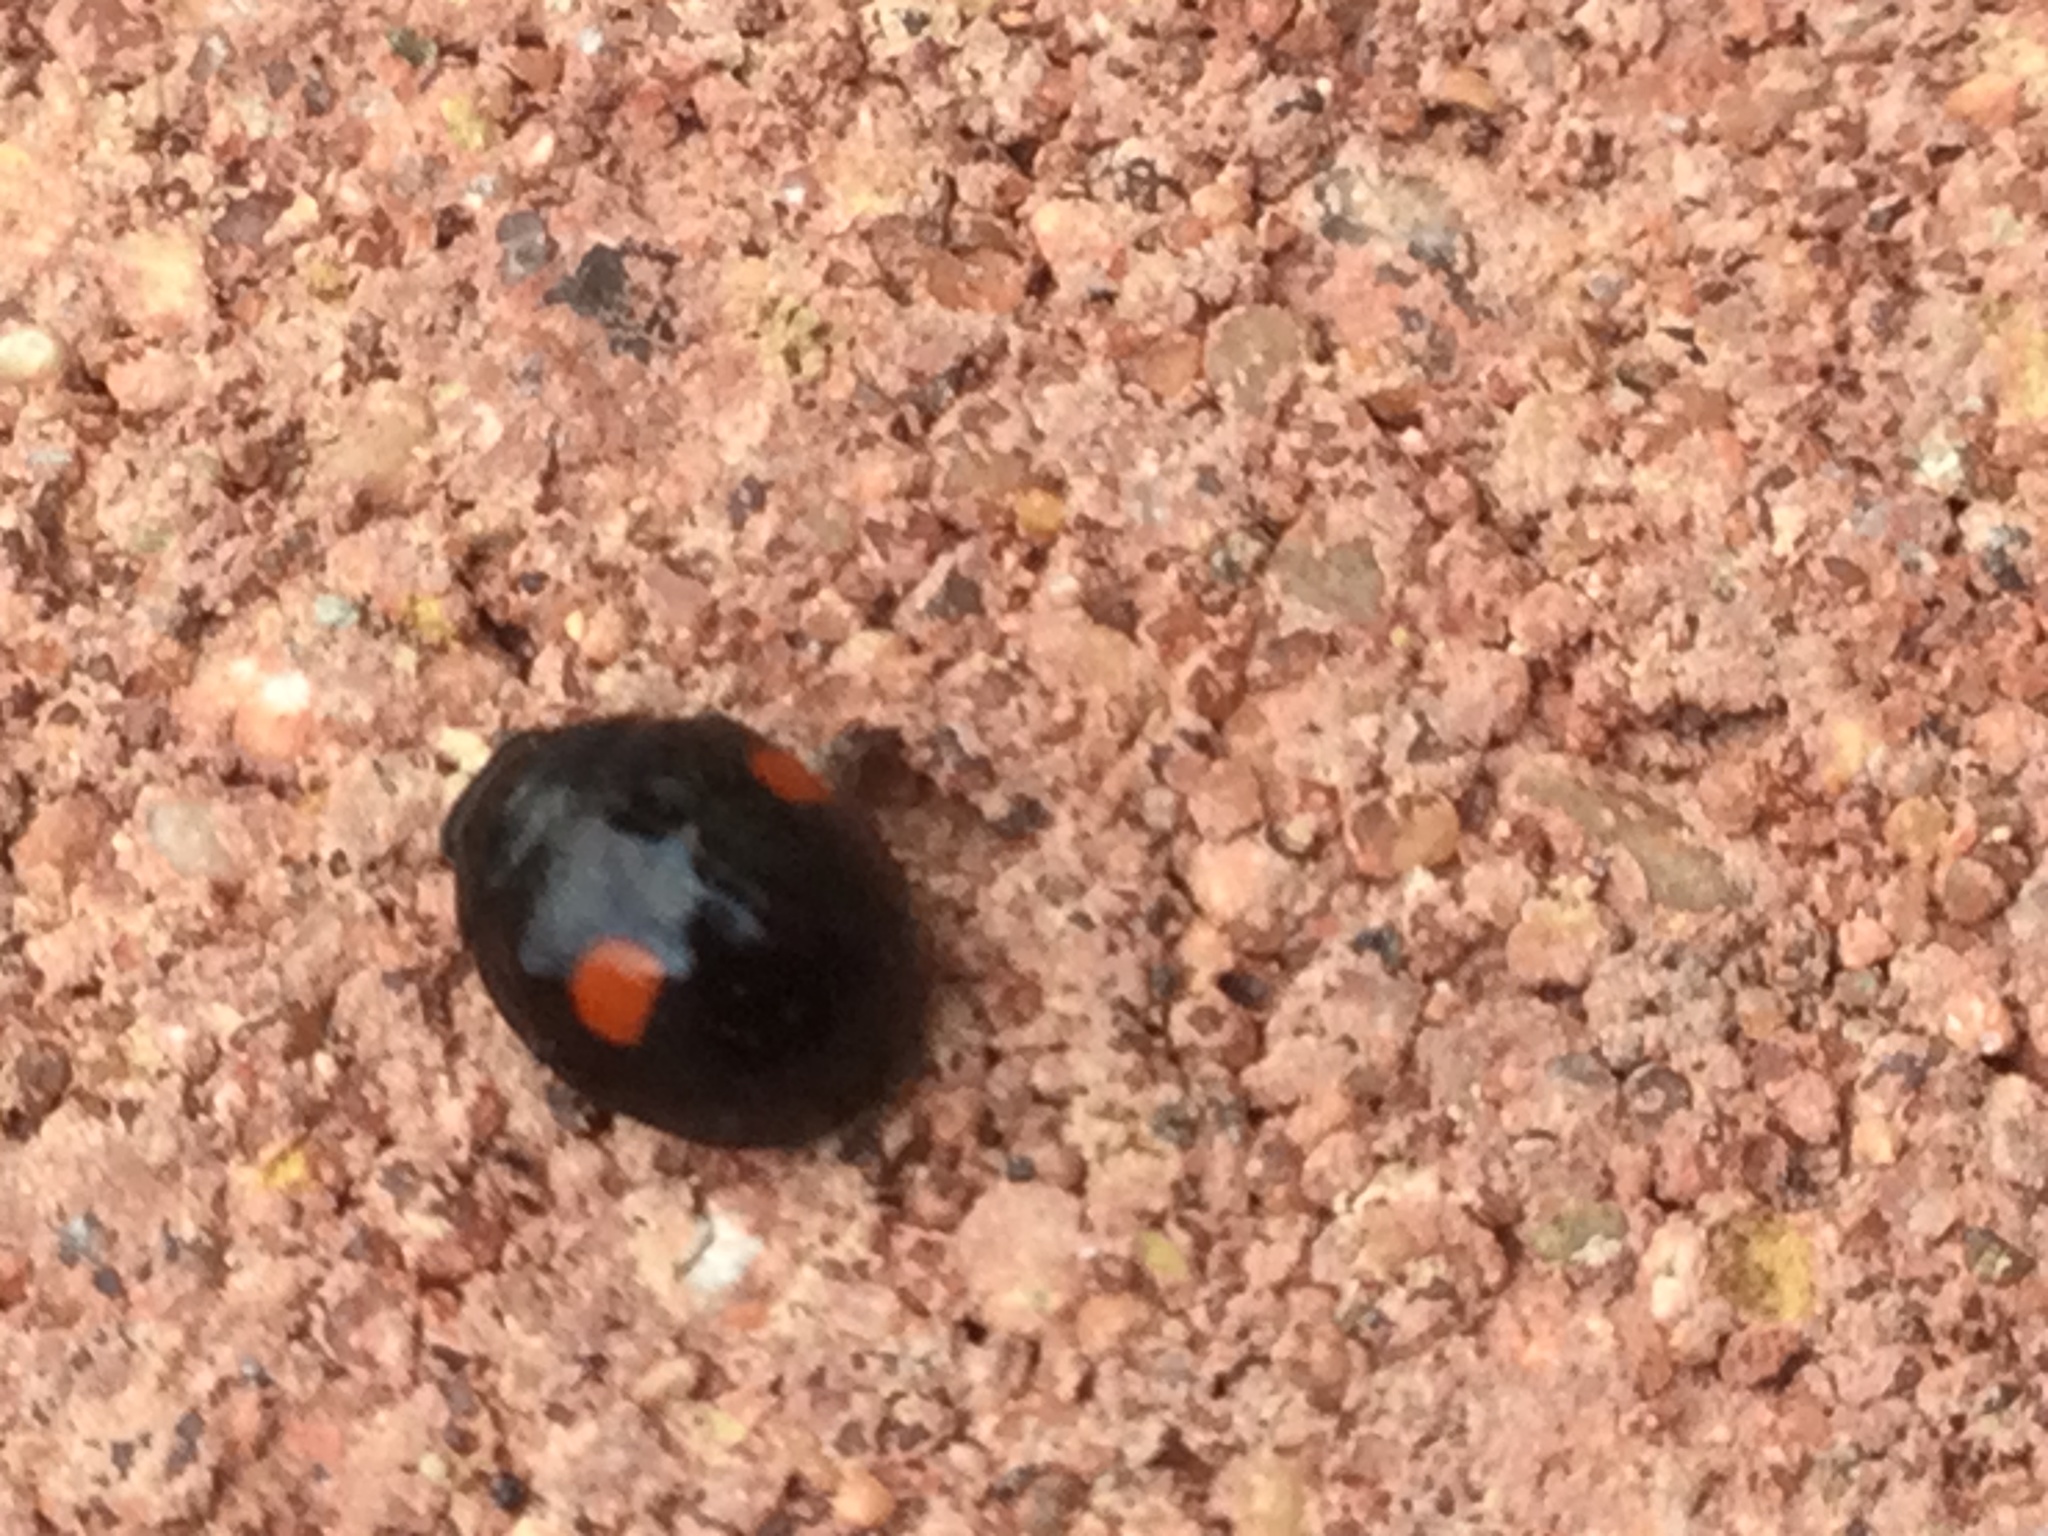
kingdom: Animalia
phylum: Arthropoda
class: Insecta
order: Coleoptera
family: Coccinellidae
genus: Hyperaspis
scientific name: Hyperaspis signata
